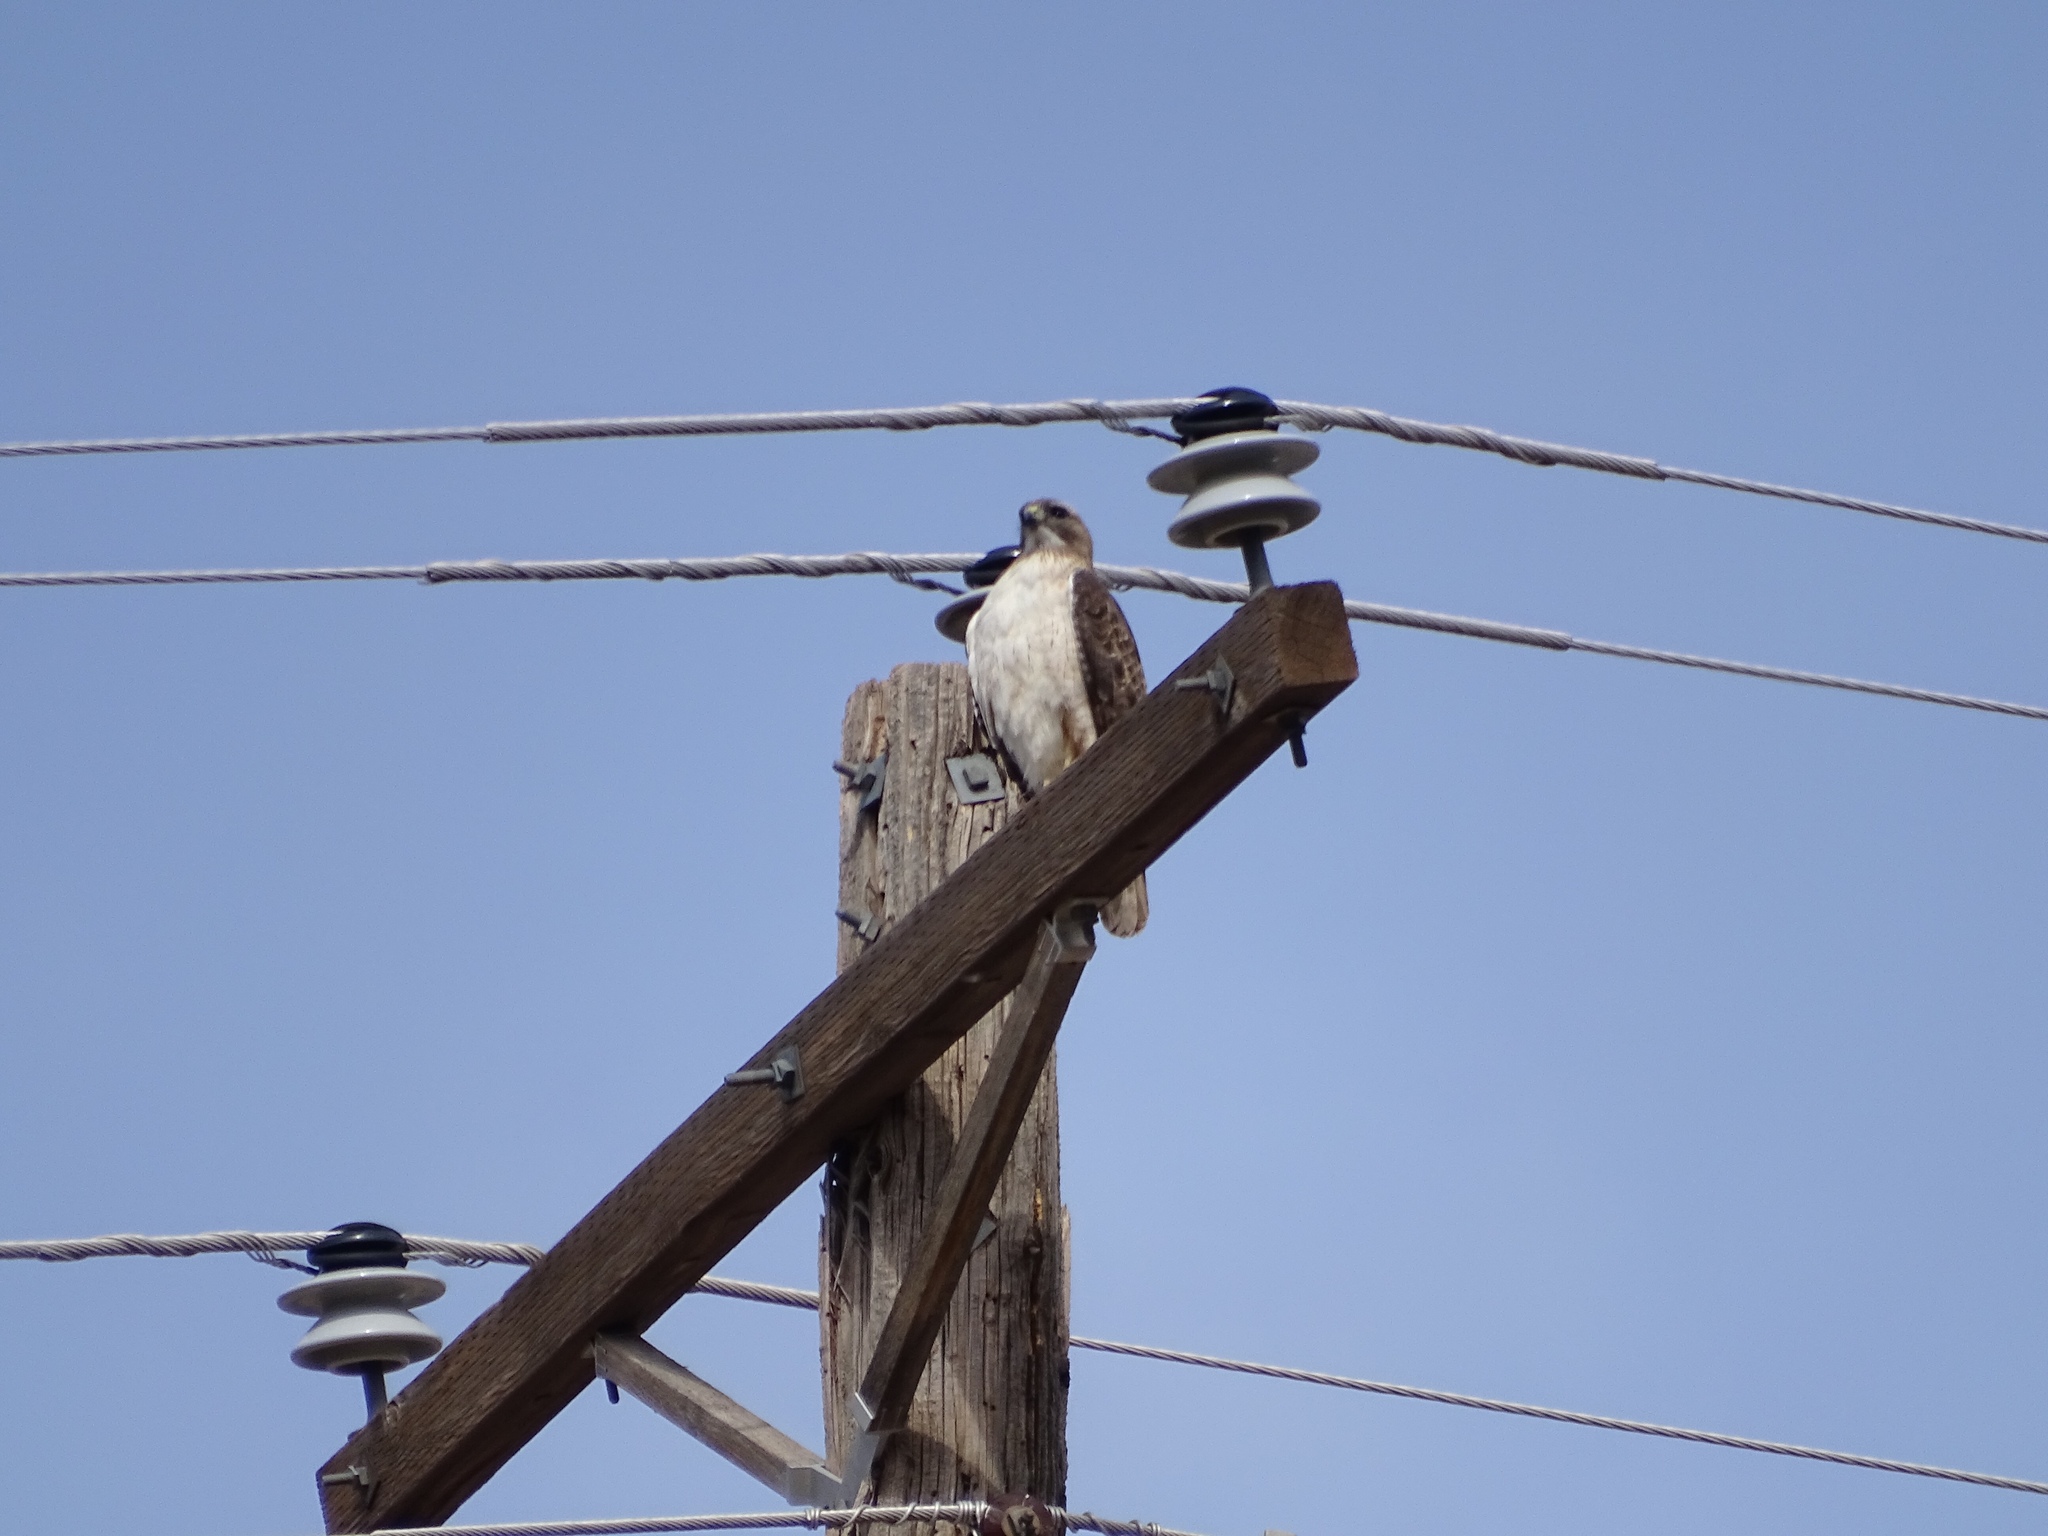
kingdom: Animalia
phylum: Chordata
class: Aves
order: Accipitriformes
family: Accipitridae
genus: Buteo
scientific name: Buteo jamaicensis
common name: Red-tailed hawk
